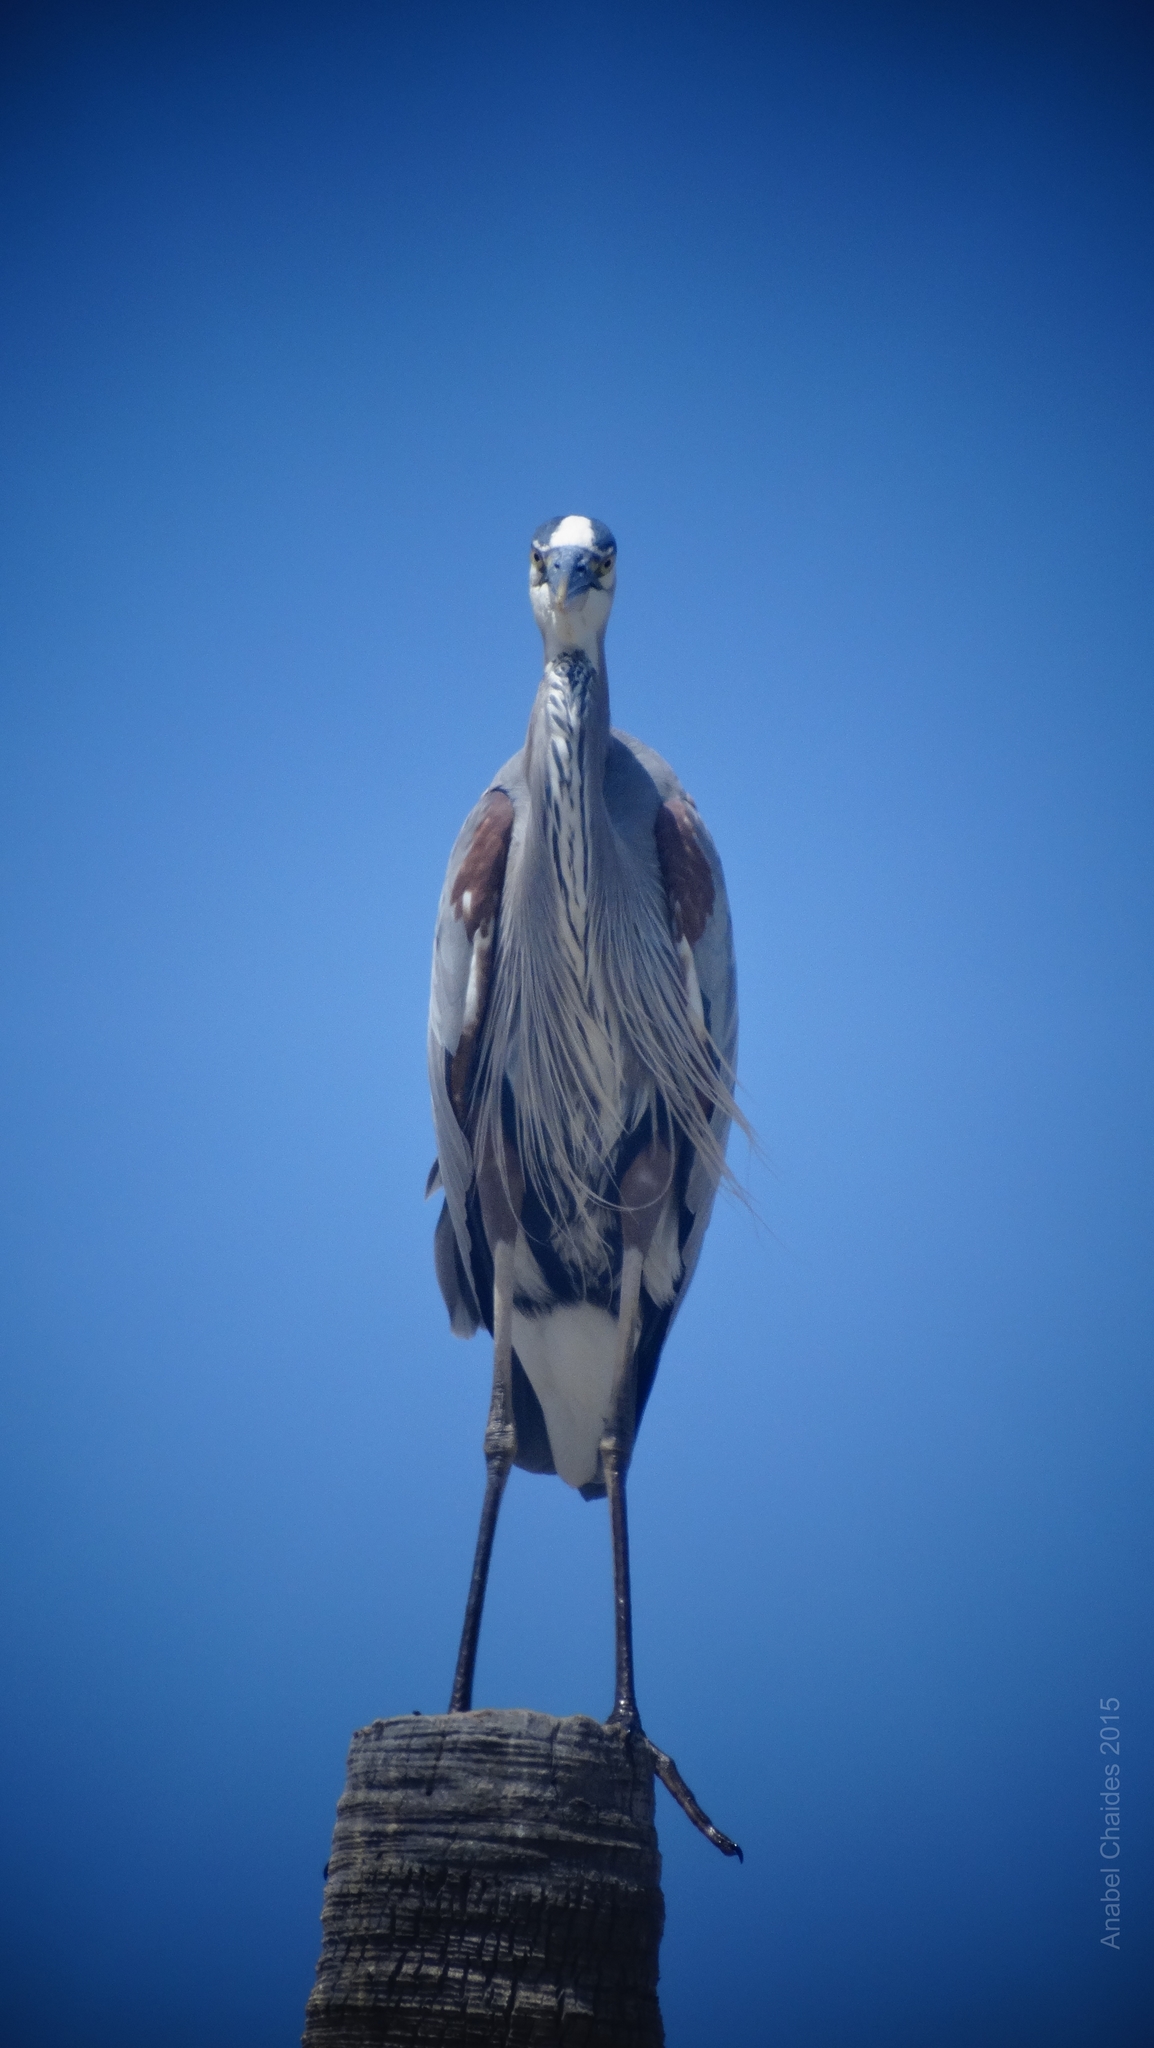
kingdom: Animalia
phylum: Chordata
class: Aves
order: Pelecaniformes
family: Ardeidae
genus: Ardea
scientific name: Ardea herodias
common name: Great blue heron
